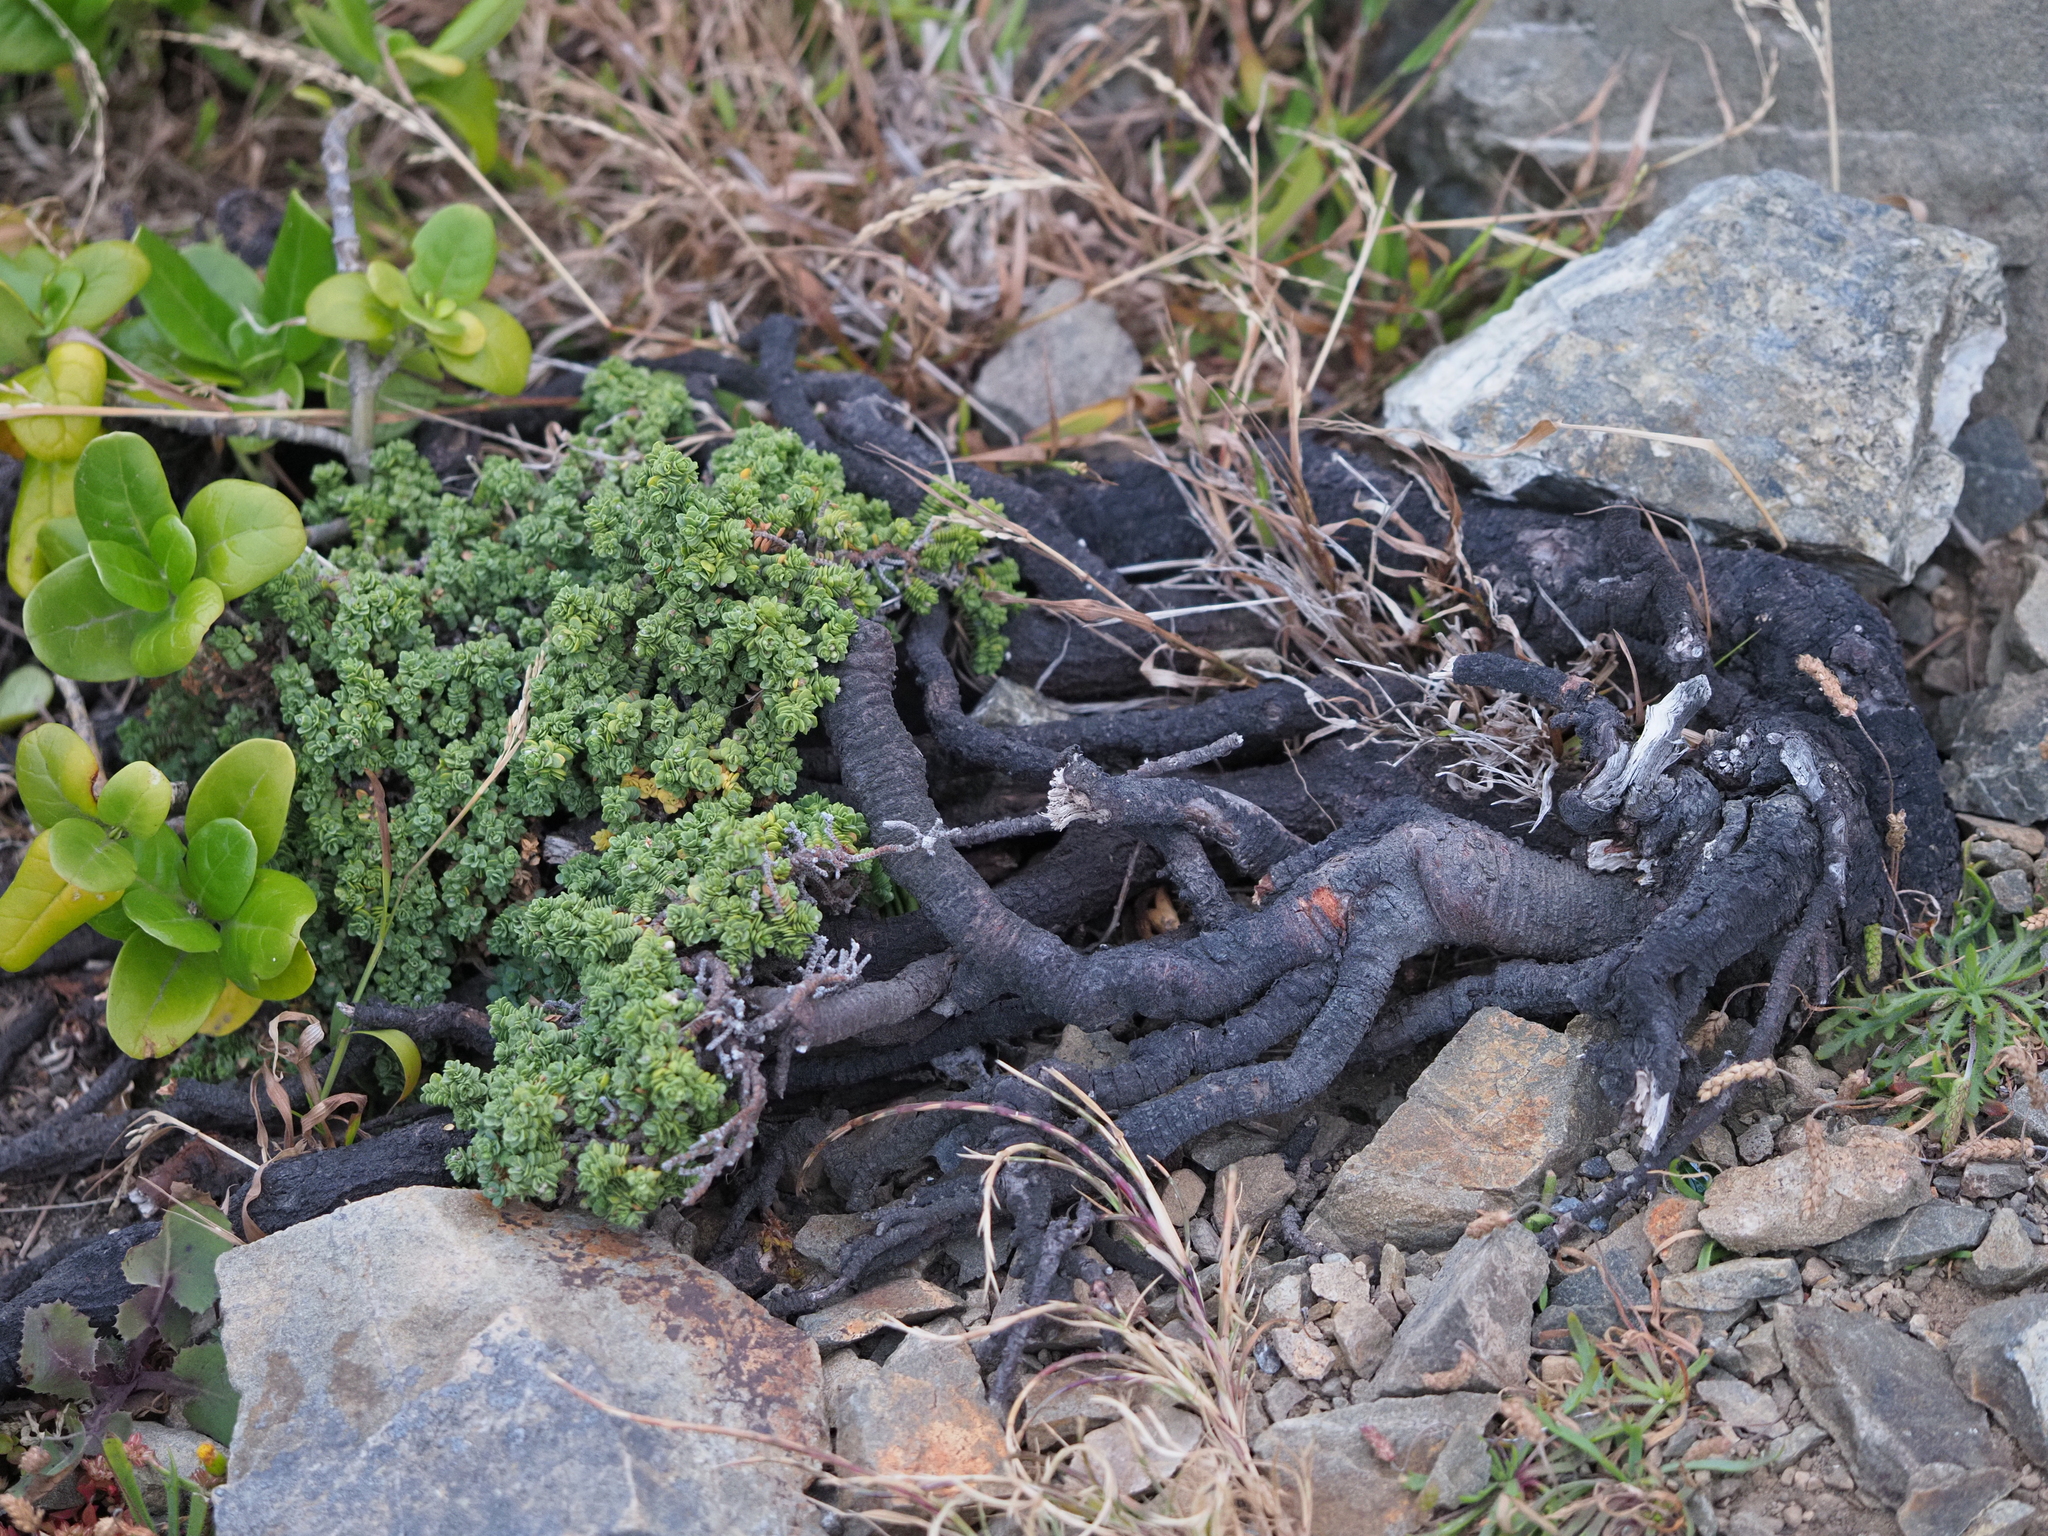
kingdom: Plantae
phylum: Tracheophyta
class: Magnoliopsida
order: Malvales
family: Thymelaeaceae
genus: Pimelea
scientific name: Pimelea carnosa
